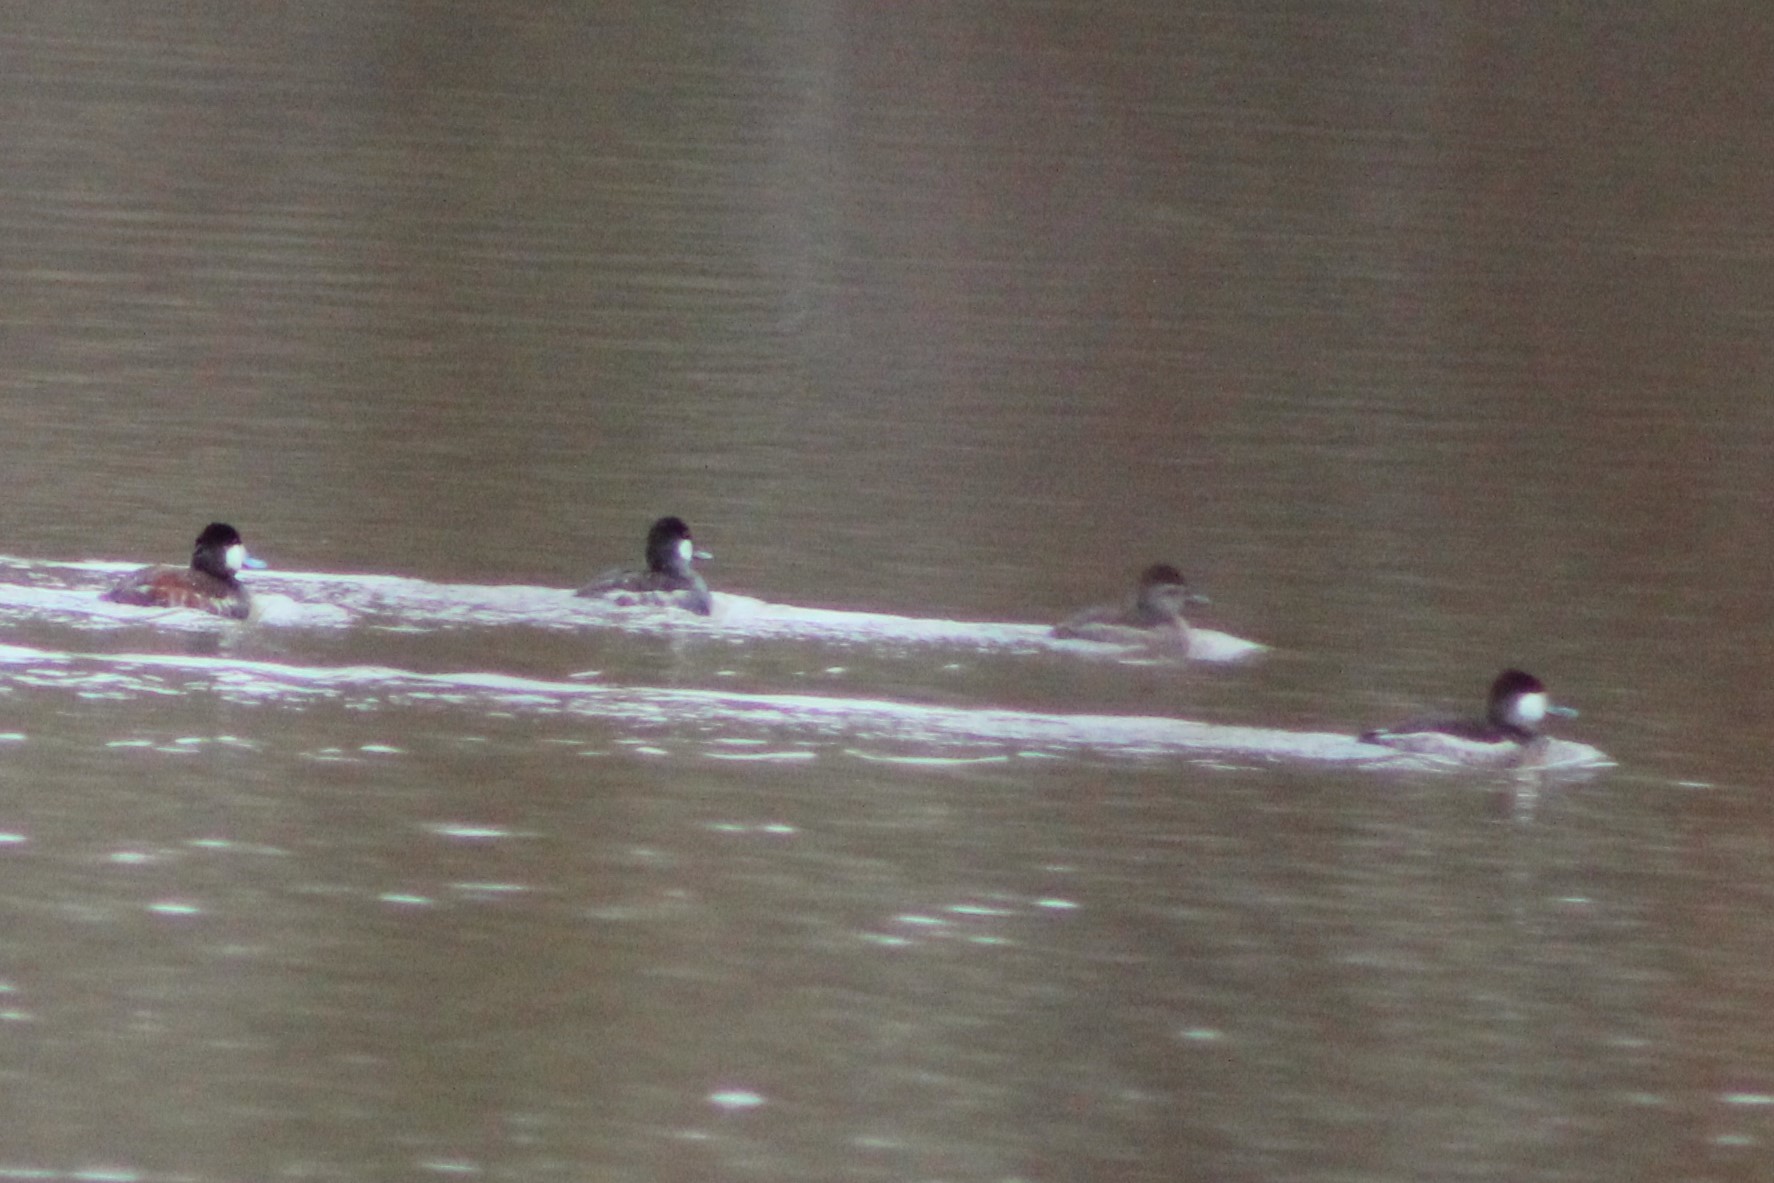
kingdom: Animalia
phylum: Chordata
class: Aves
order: Anseriformes
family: Anatidae
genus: Oxyura
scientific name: Oxyura jamaicensis
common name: Ruddy duck
